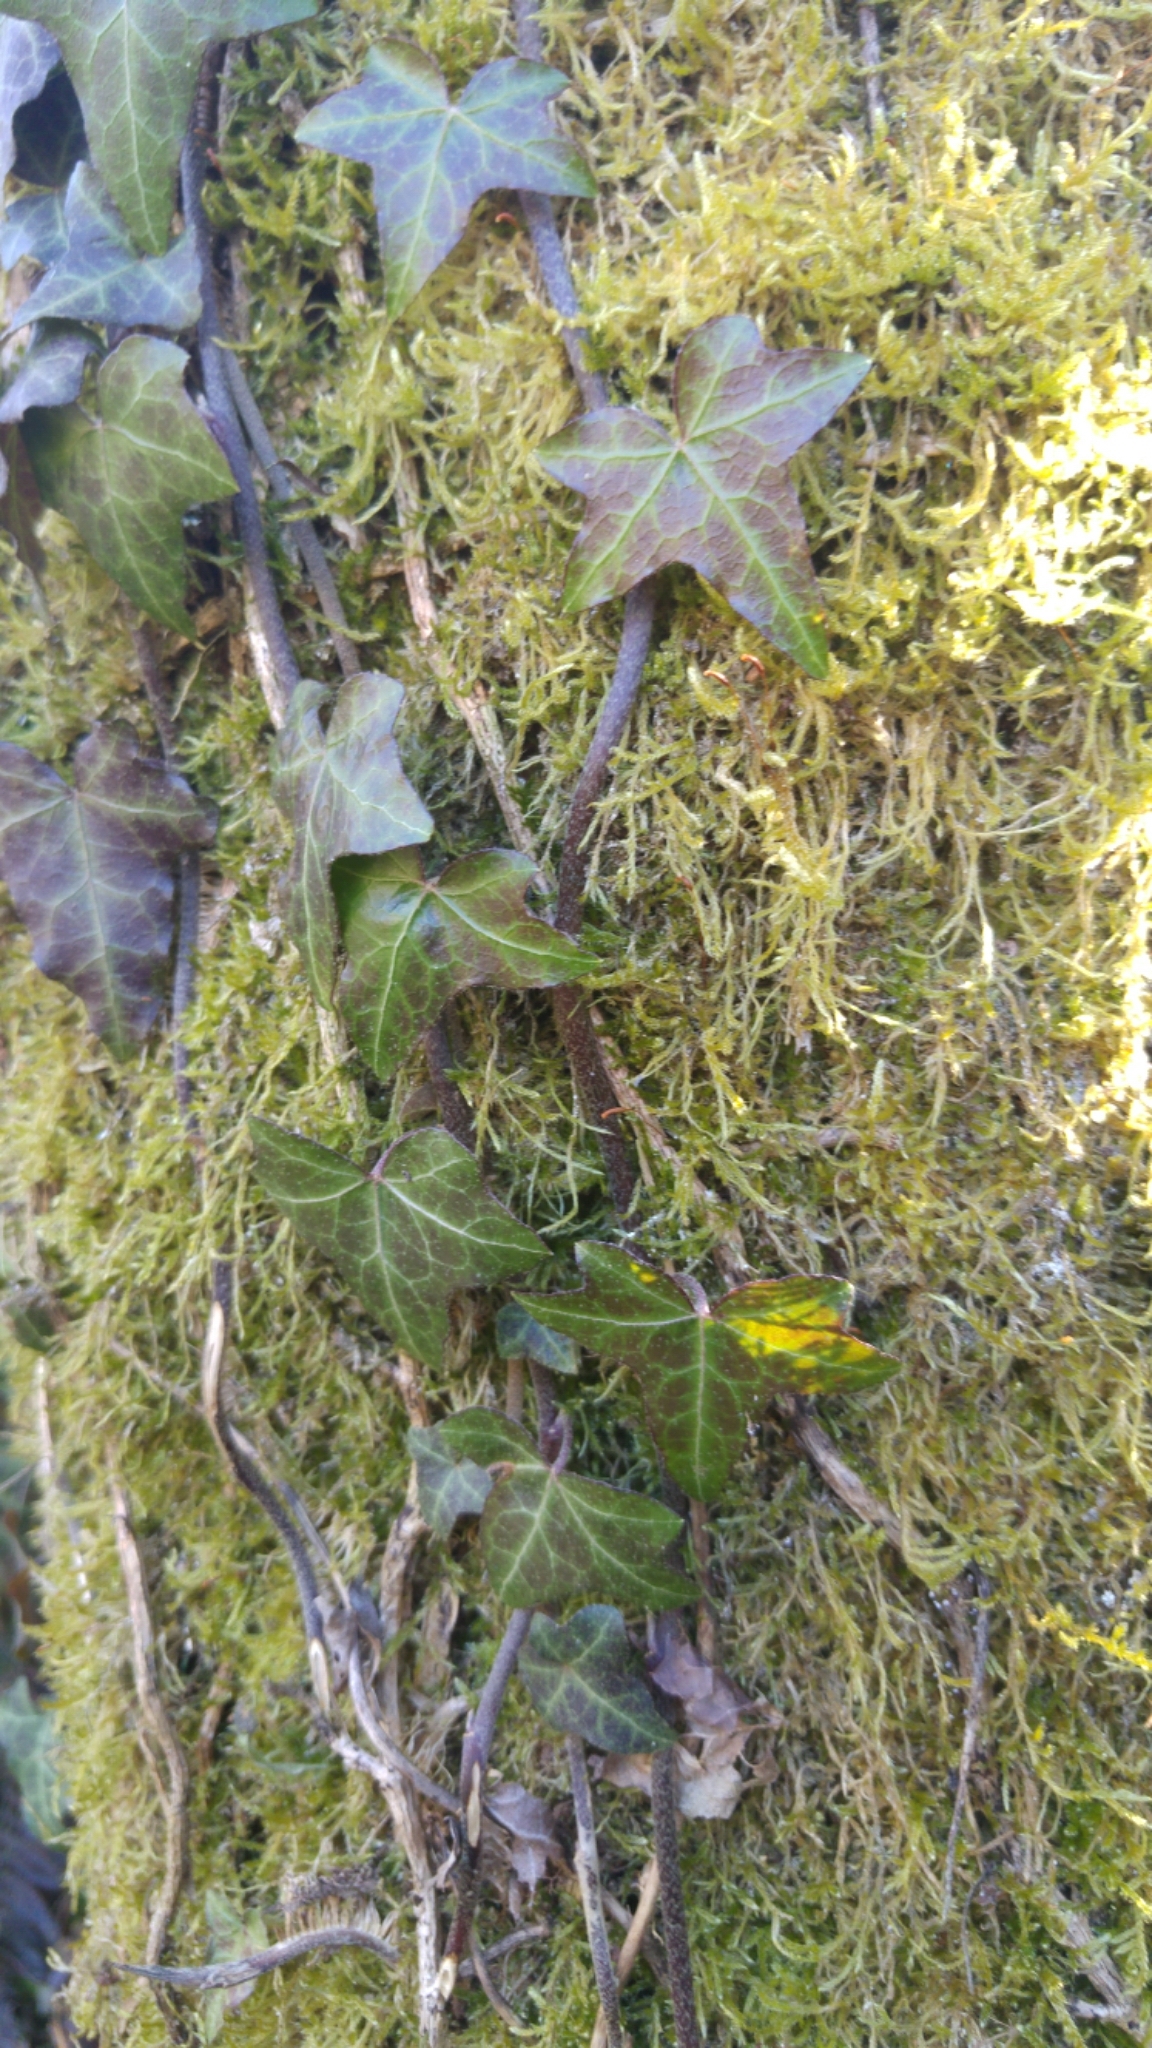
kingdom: Plantae
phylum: Tracheophyta
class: Magnoliopsida
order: Apiales
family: Araliaceae
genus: Hedera
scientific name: Hedera helix
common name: Ivy
